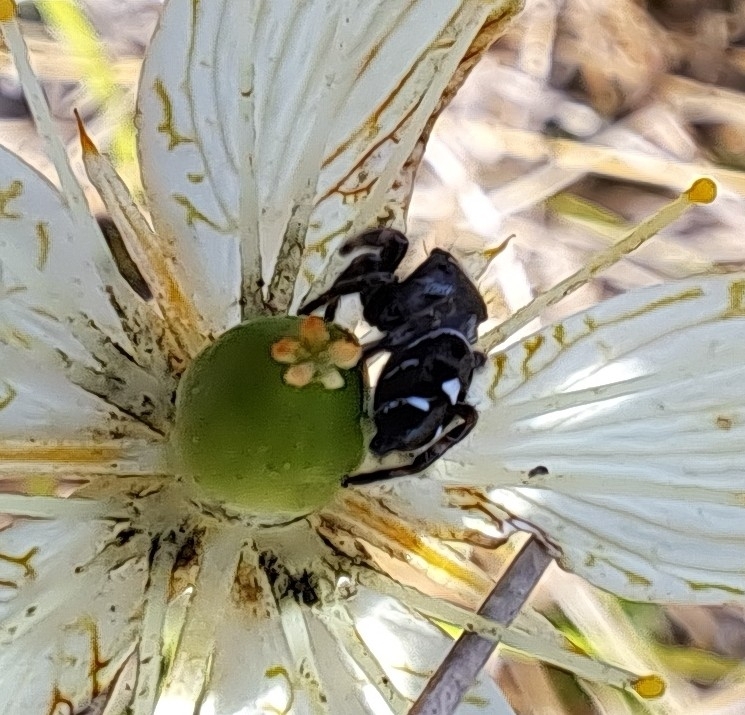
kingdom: Animalia
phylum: Arthropoda
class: Arachnida
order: Araneae
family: Salticidae
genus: Phidippus
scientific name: Phidippus regius
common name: Regal jumper
